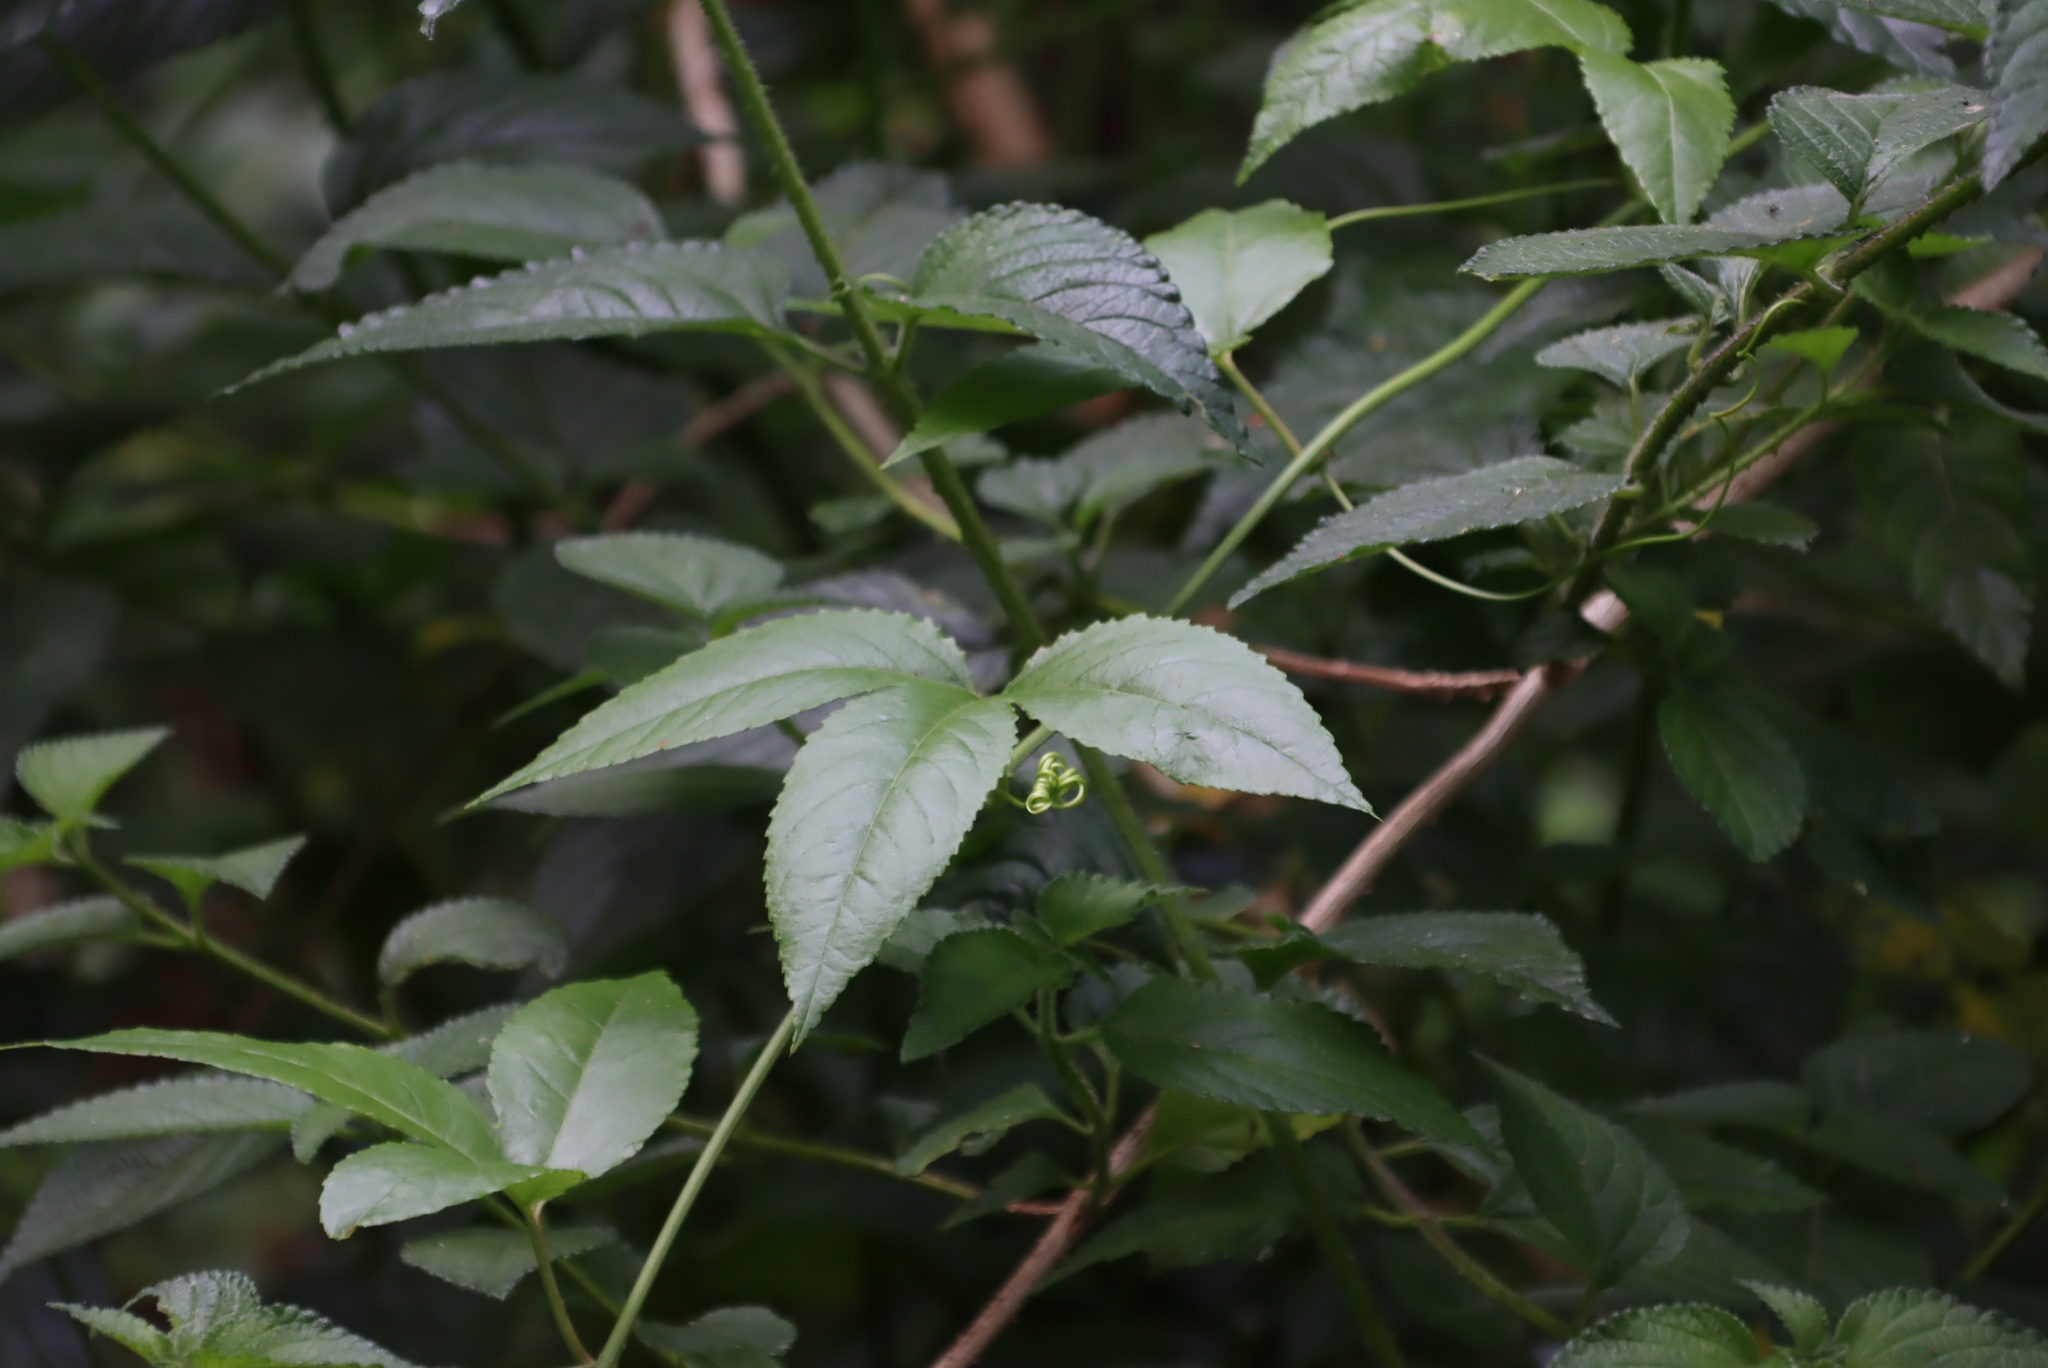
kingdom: Plantae
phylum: Tracheophyta
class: Magnoliopsida
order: Malpighiales
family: Passifloraceae
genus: Passiflora
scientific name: Passiflora tarminiana
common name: Banana poka
